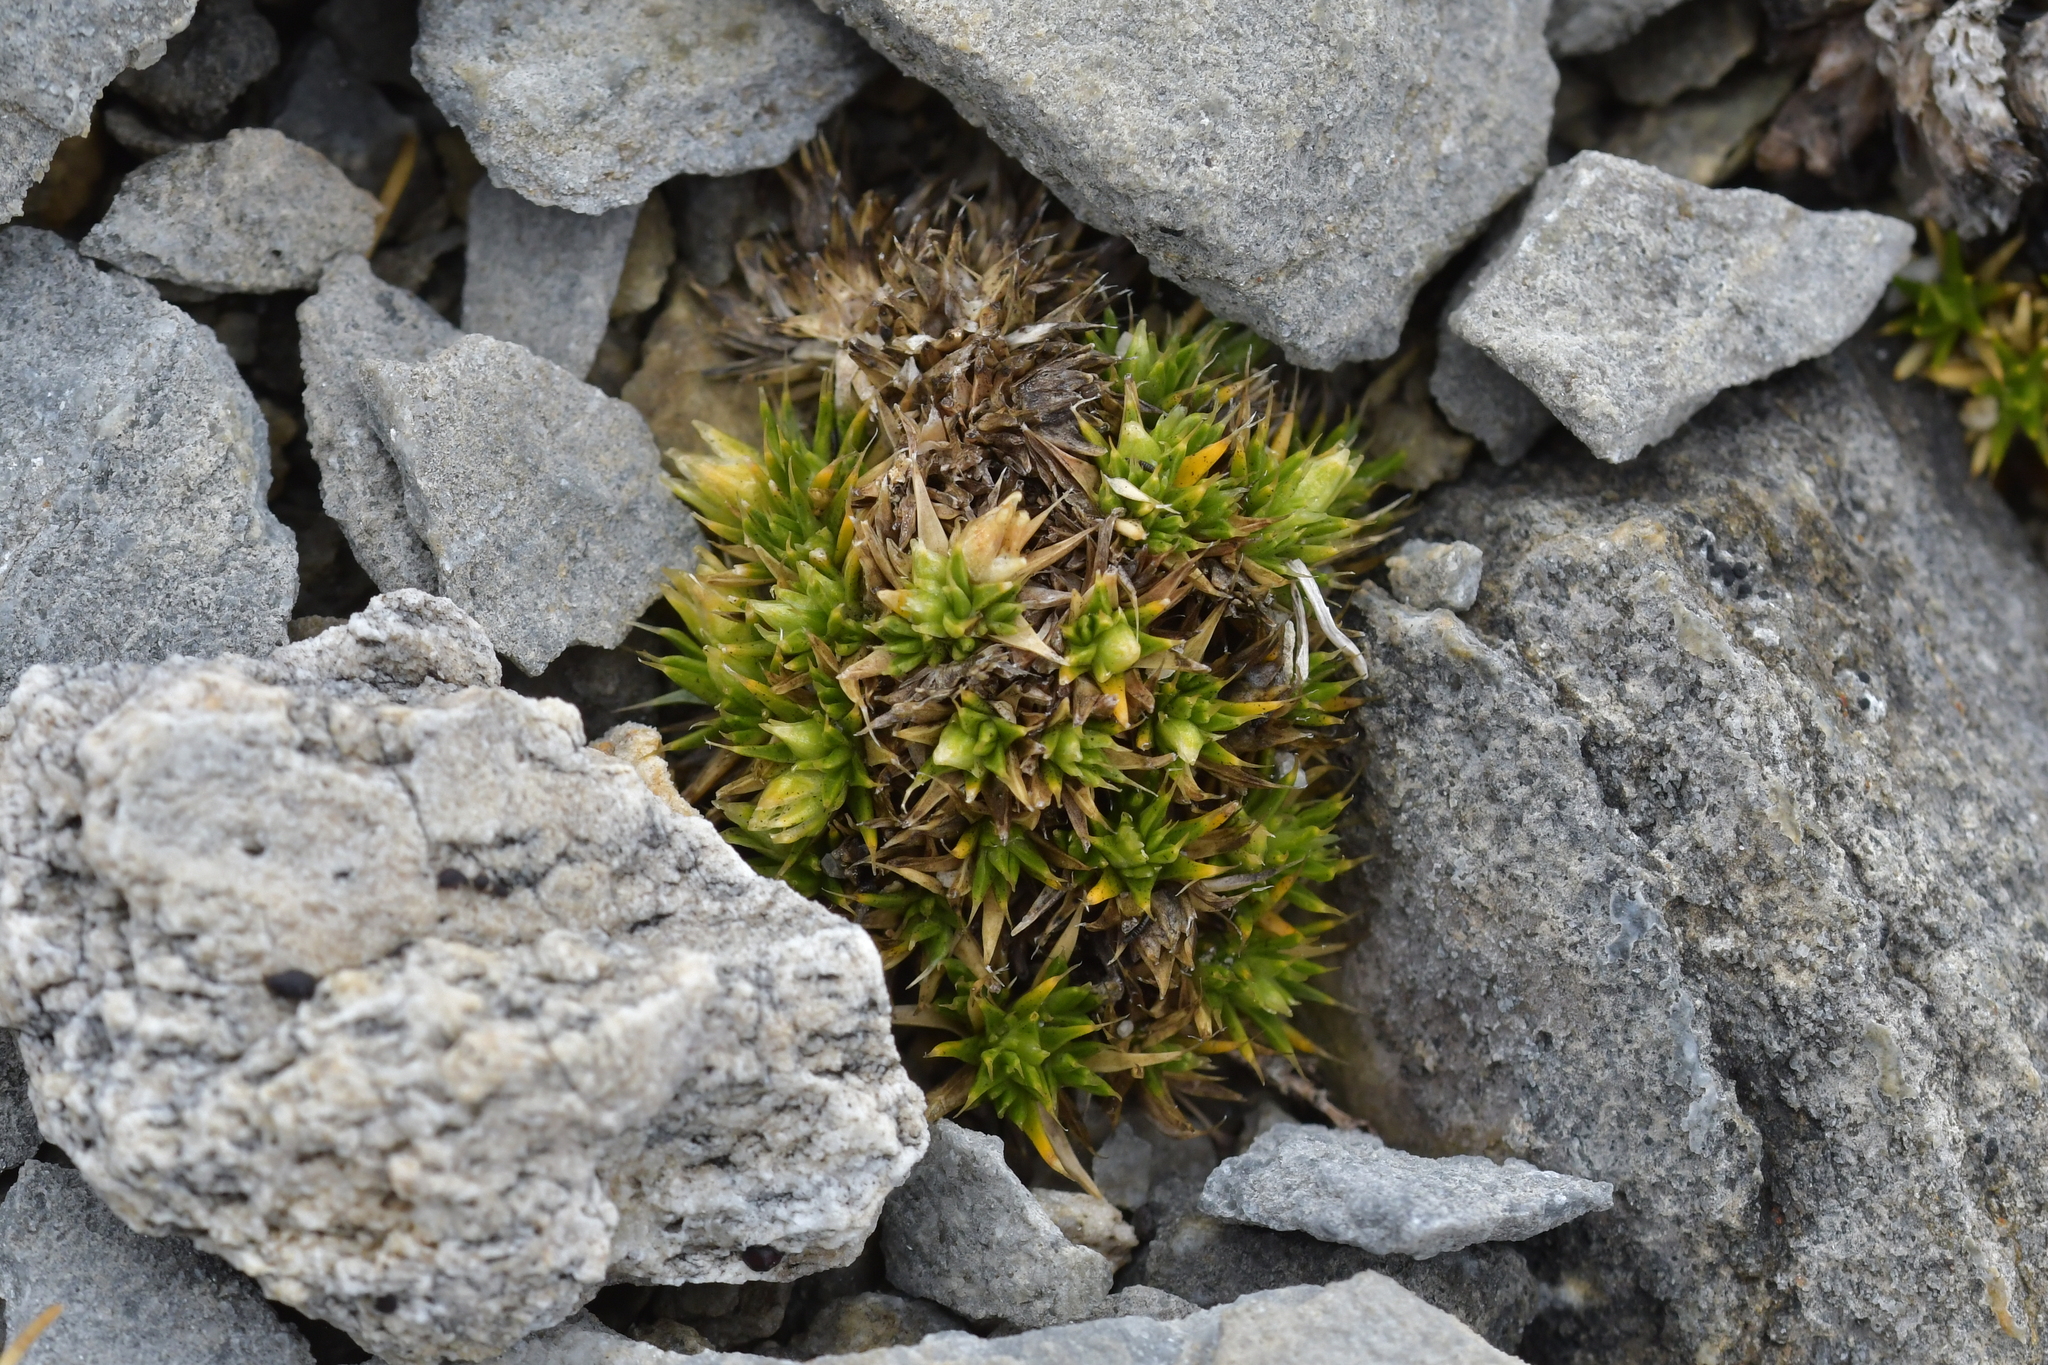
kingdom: Plantae
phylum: Tracheophyta
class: Magnoliopsida
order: Caryophyllales
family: Caryophyllaceae
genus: Colobanthus
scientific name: Colobanthus buchananii
